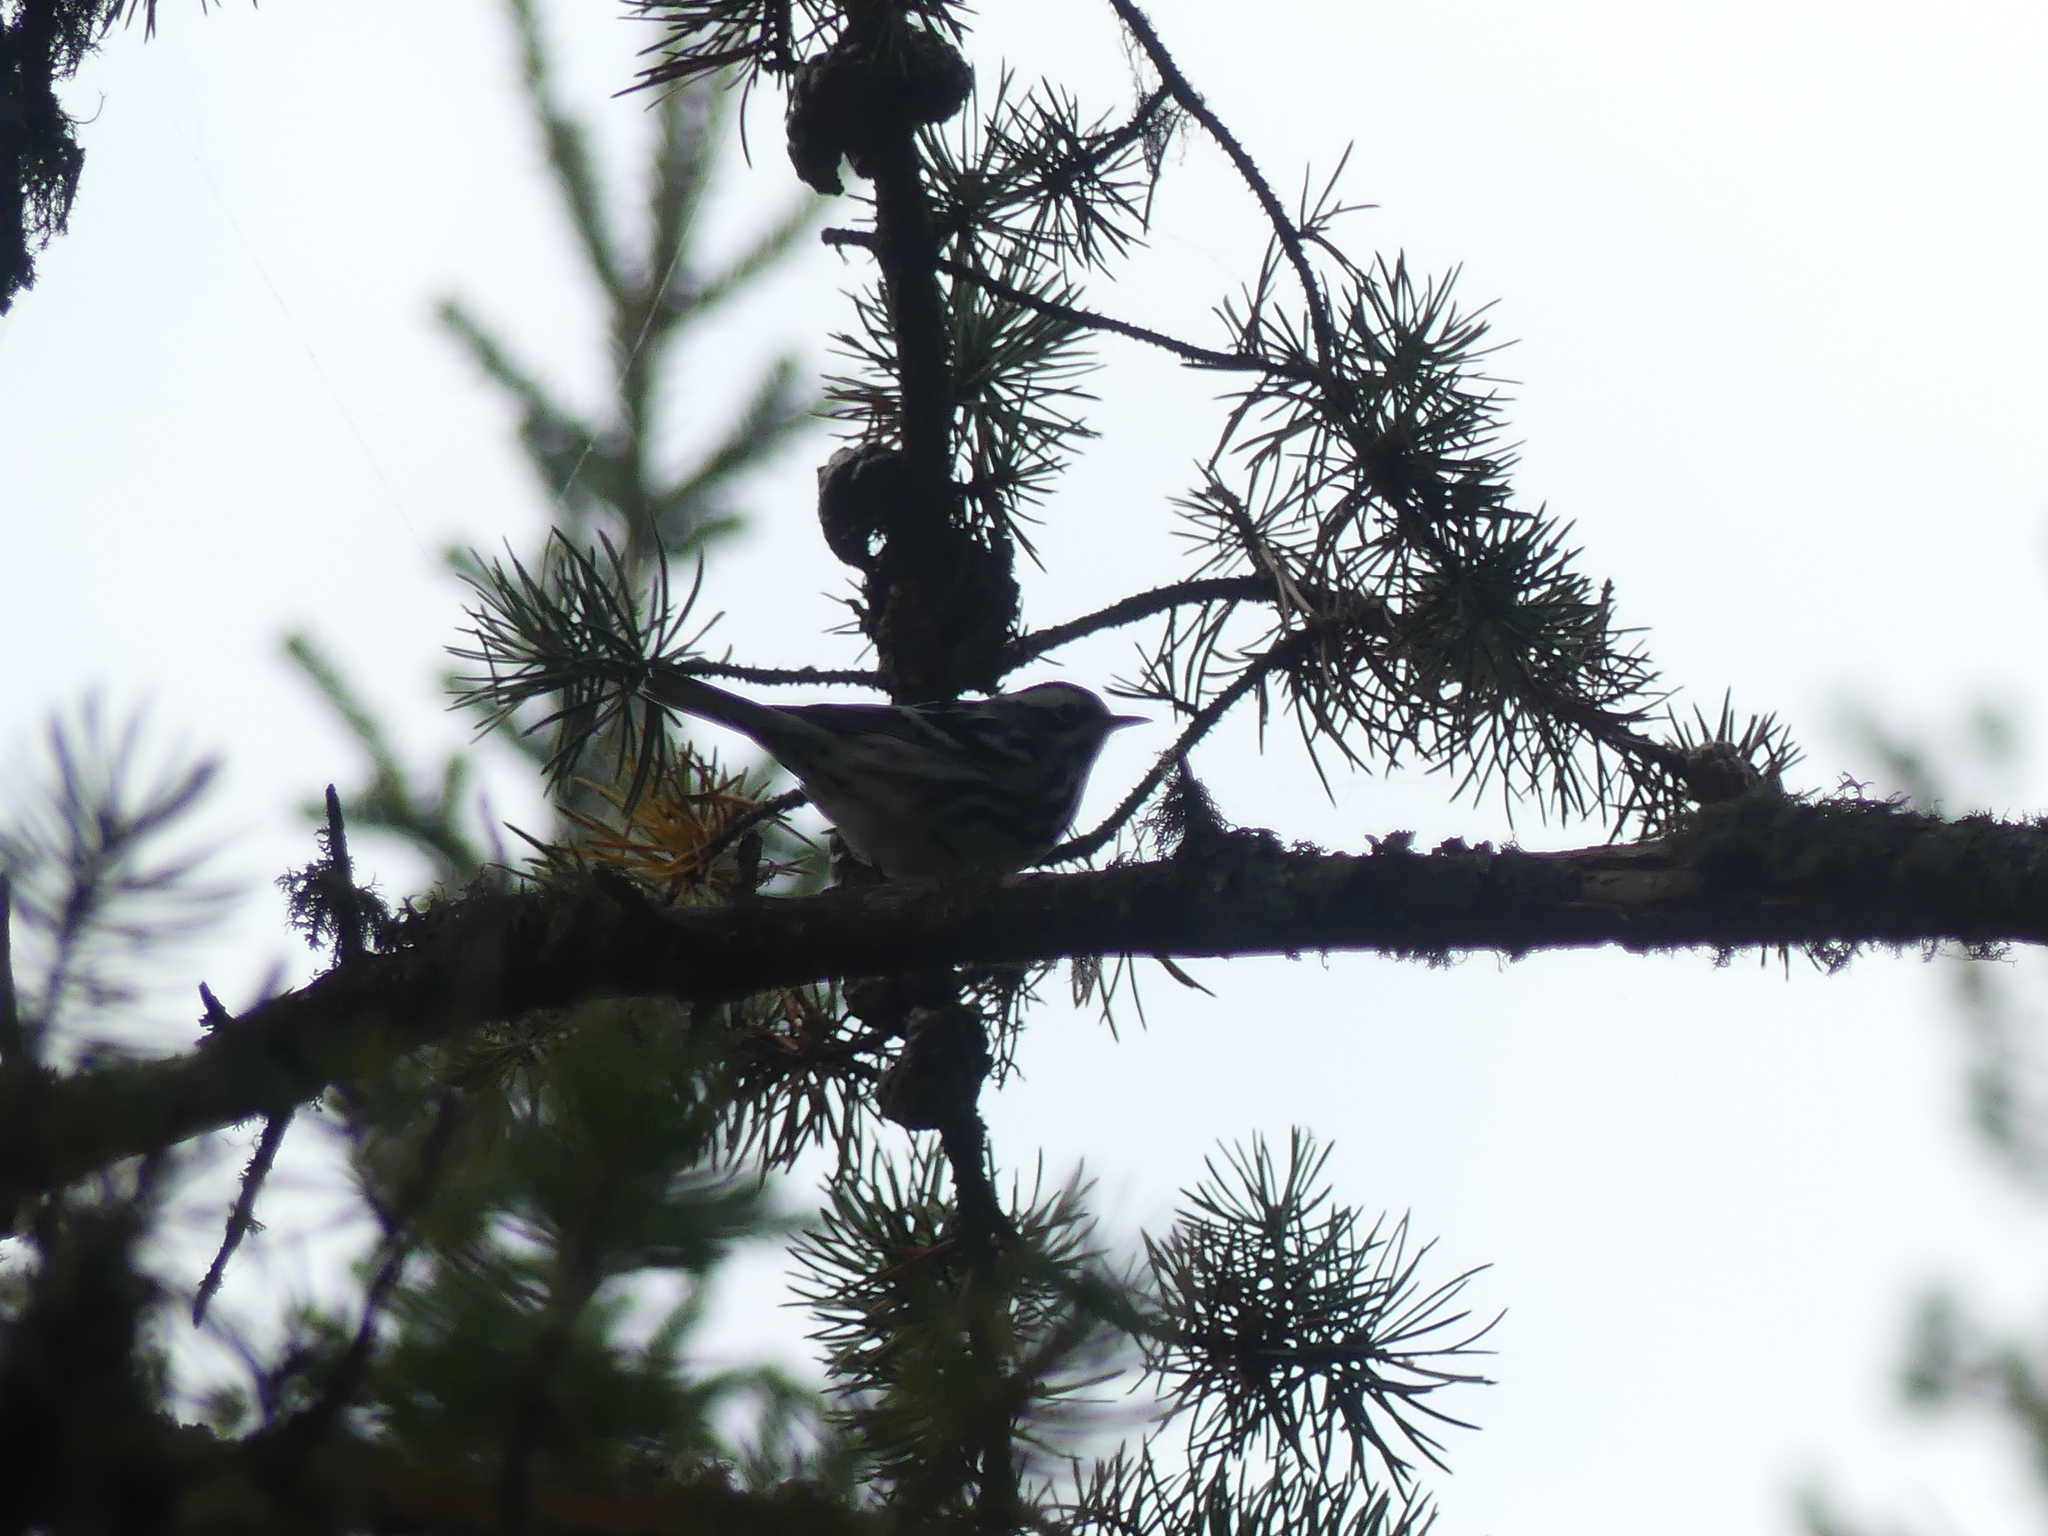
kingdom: Animalia
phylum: Chordata
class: Aves
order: Passeriformes
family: Parulidae
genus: Mniotilta
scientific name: Mniotilta varia
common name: Black-and-white warbler
